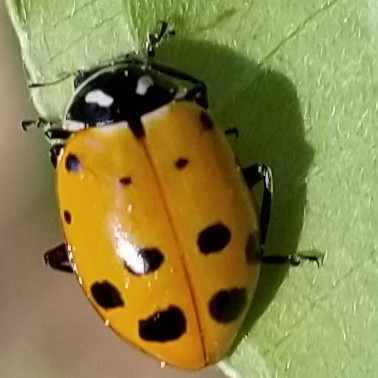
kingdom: Animalia
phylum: Arthropoda
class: Insecta
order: Coleoptera
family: Coccinellidae
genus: Hippodamia
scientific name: Hippodamia convergens
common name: Convergent lady beetle
